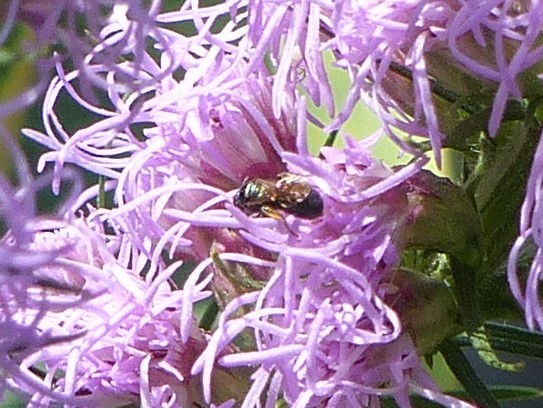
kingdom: Animalia
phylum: Arthropoda
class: Insecta
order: Hymenoptera
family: Apidae
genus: Zadontomerus
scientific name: Zadontomerus
